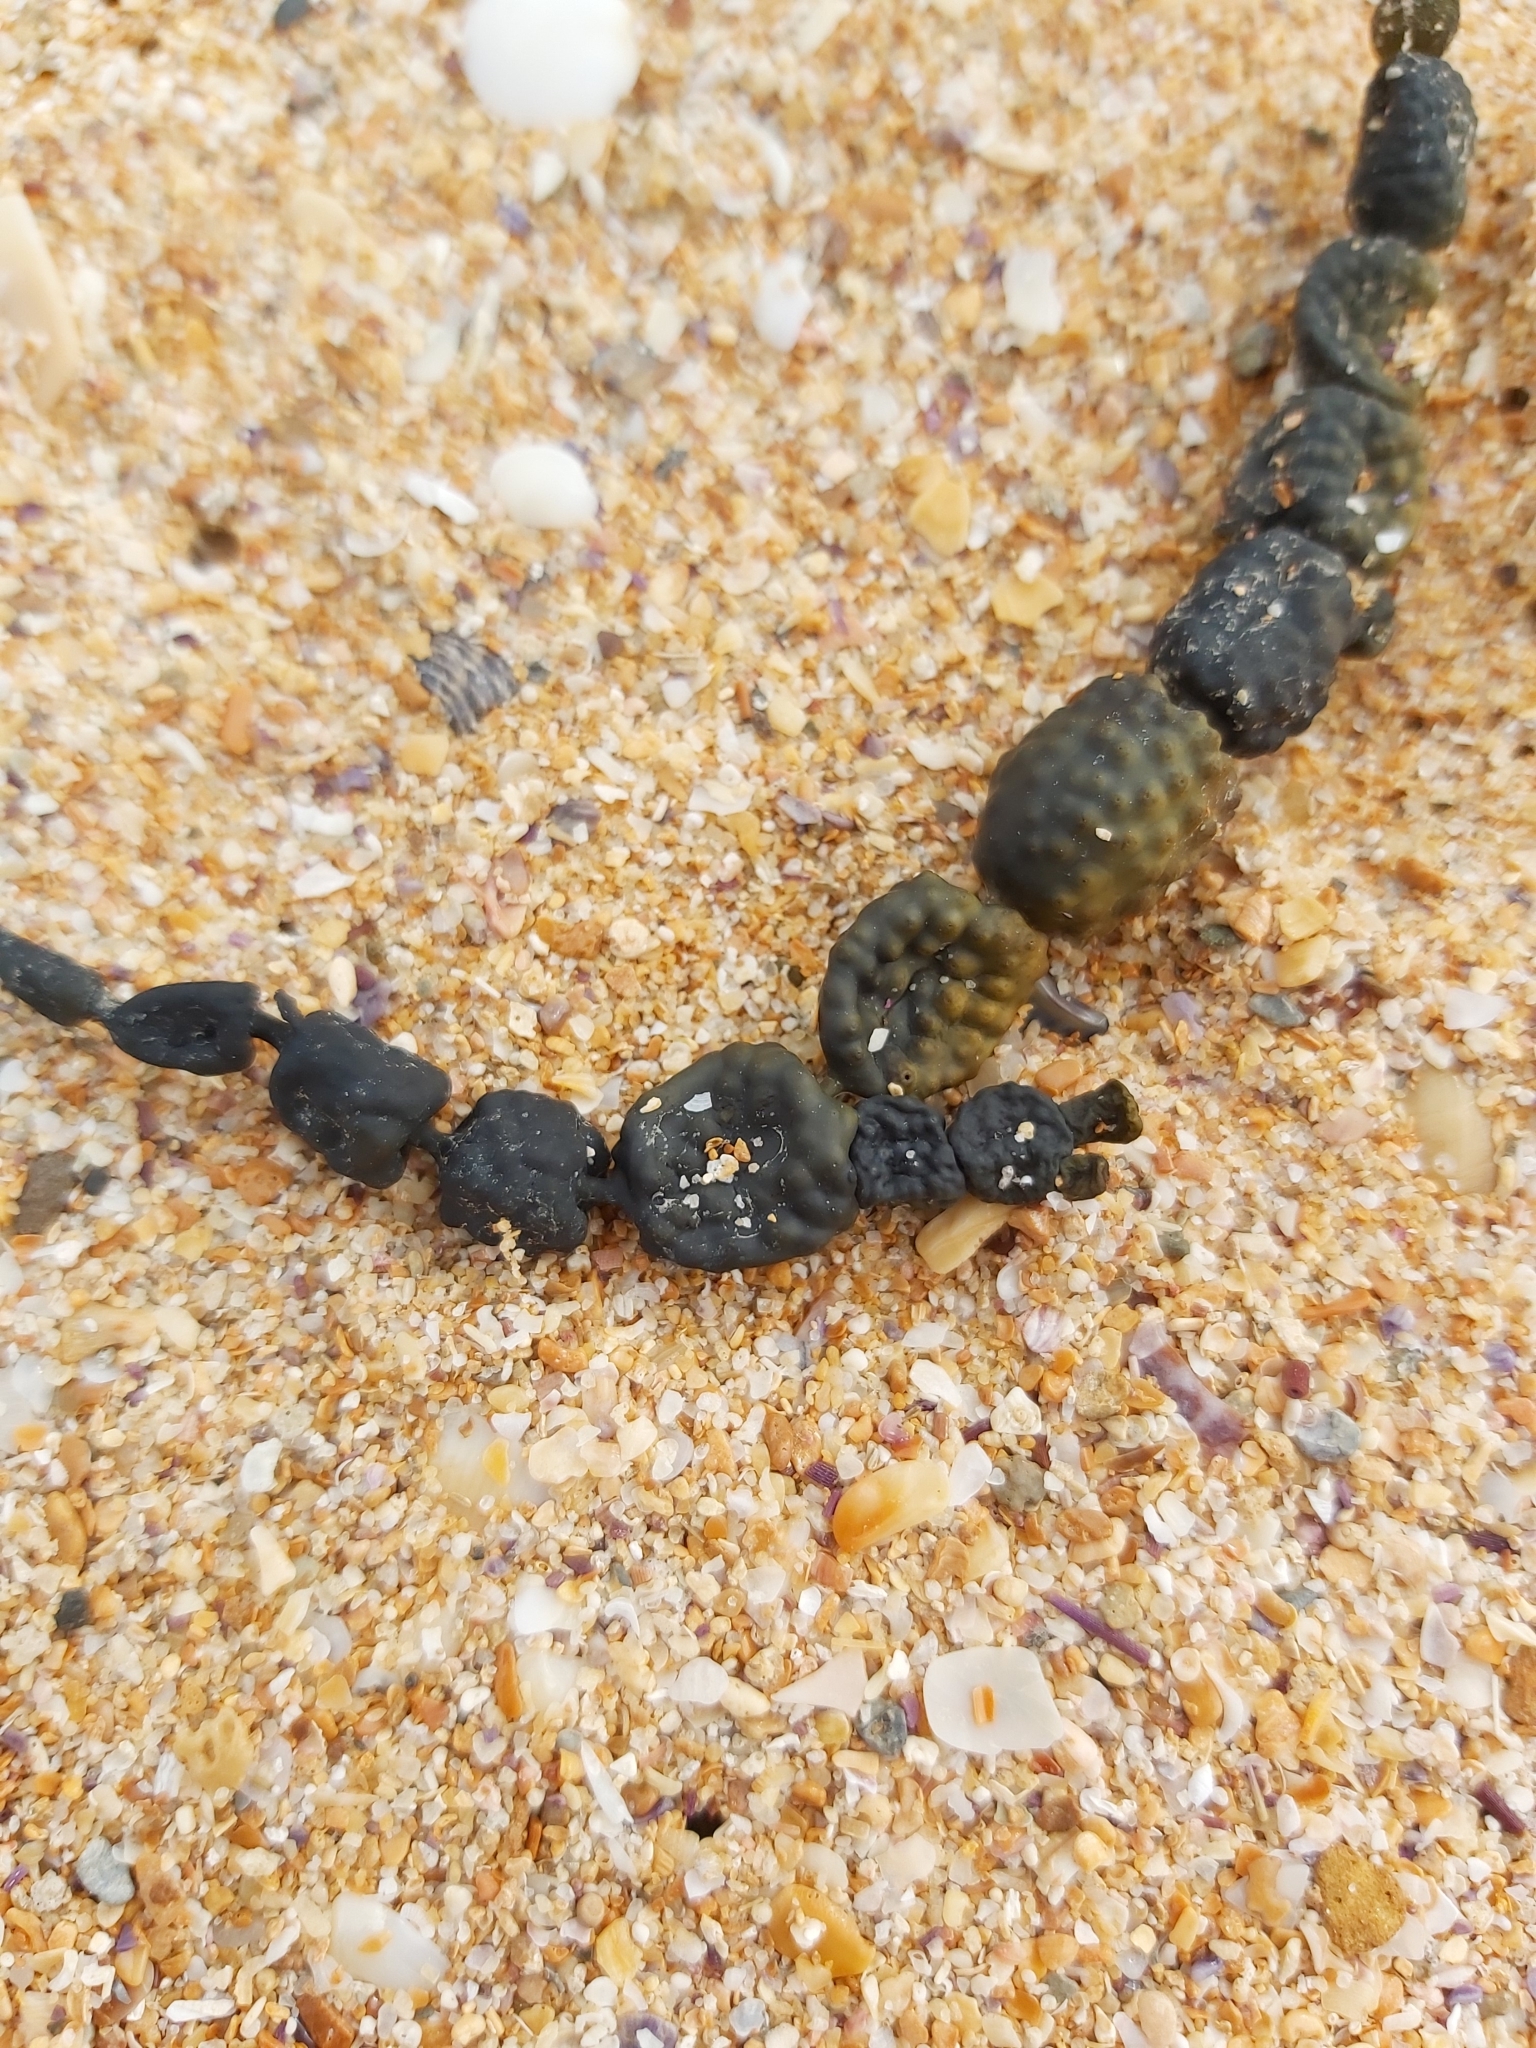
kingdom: Chromista
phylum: Ochrophyta
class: Phaeophyceae
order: Fucales
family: Hormosiraceae
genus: Hormosira
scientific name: Hormosira banksii
